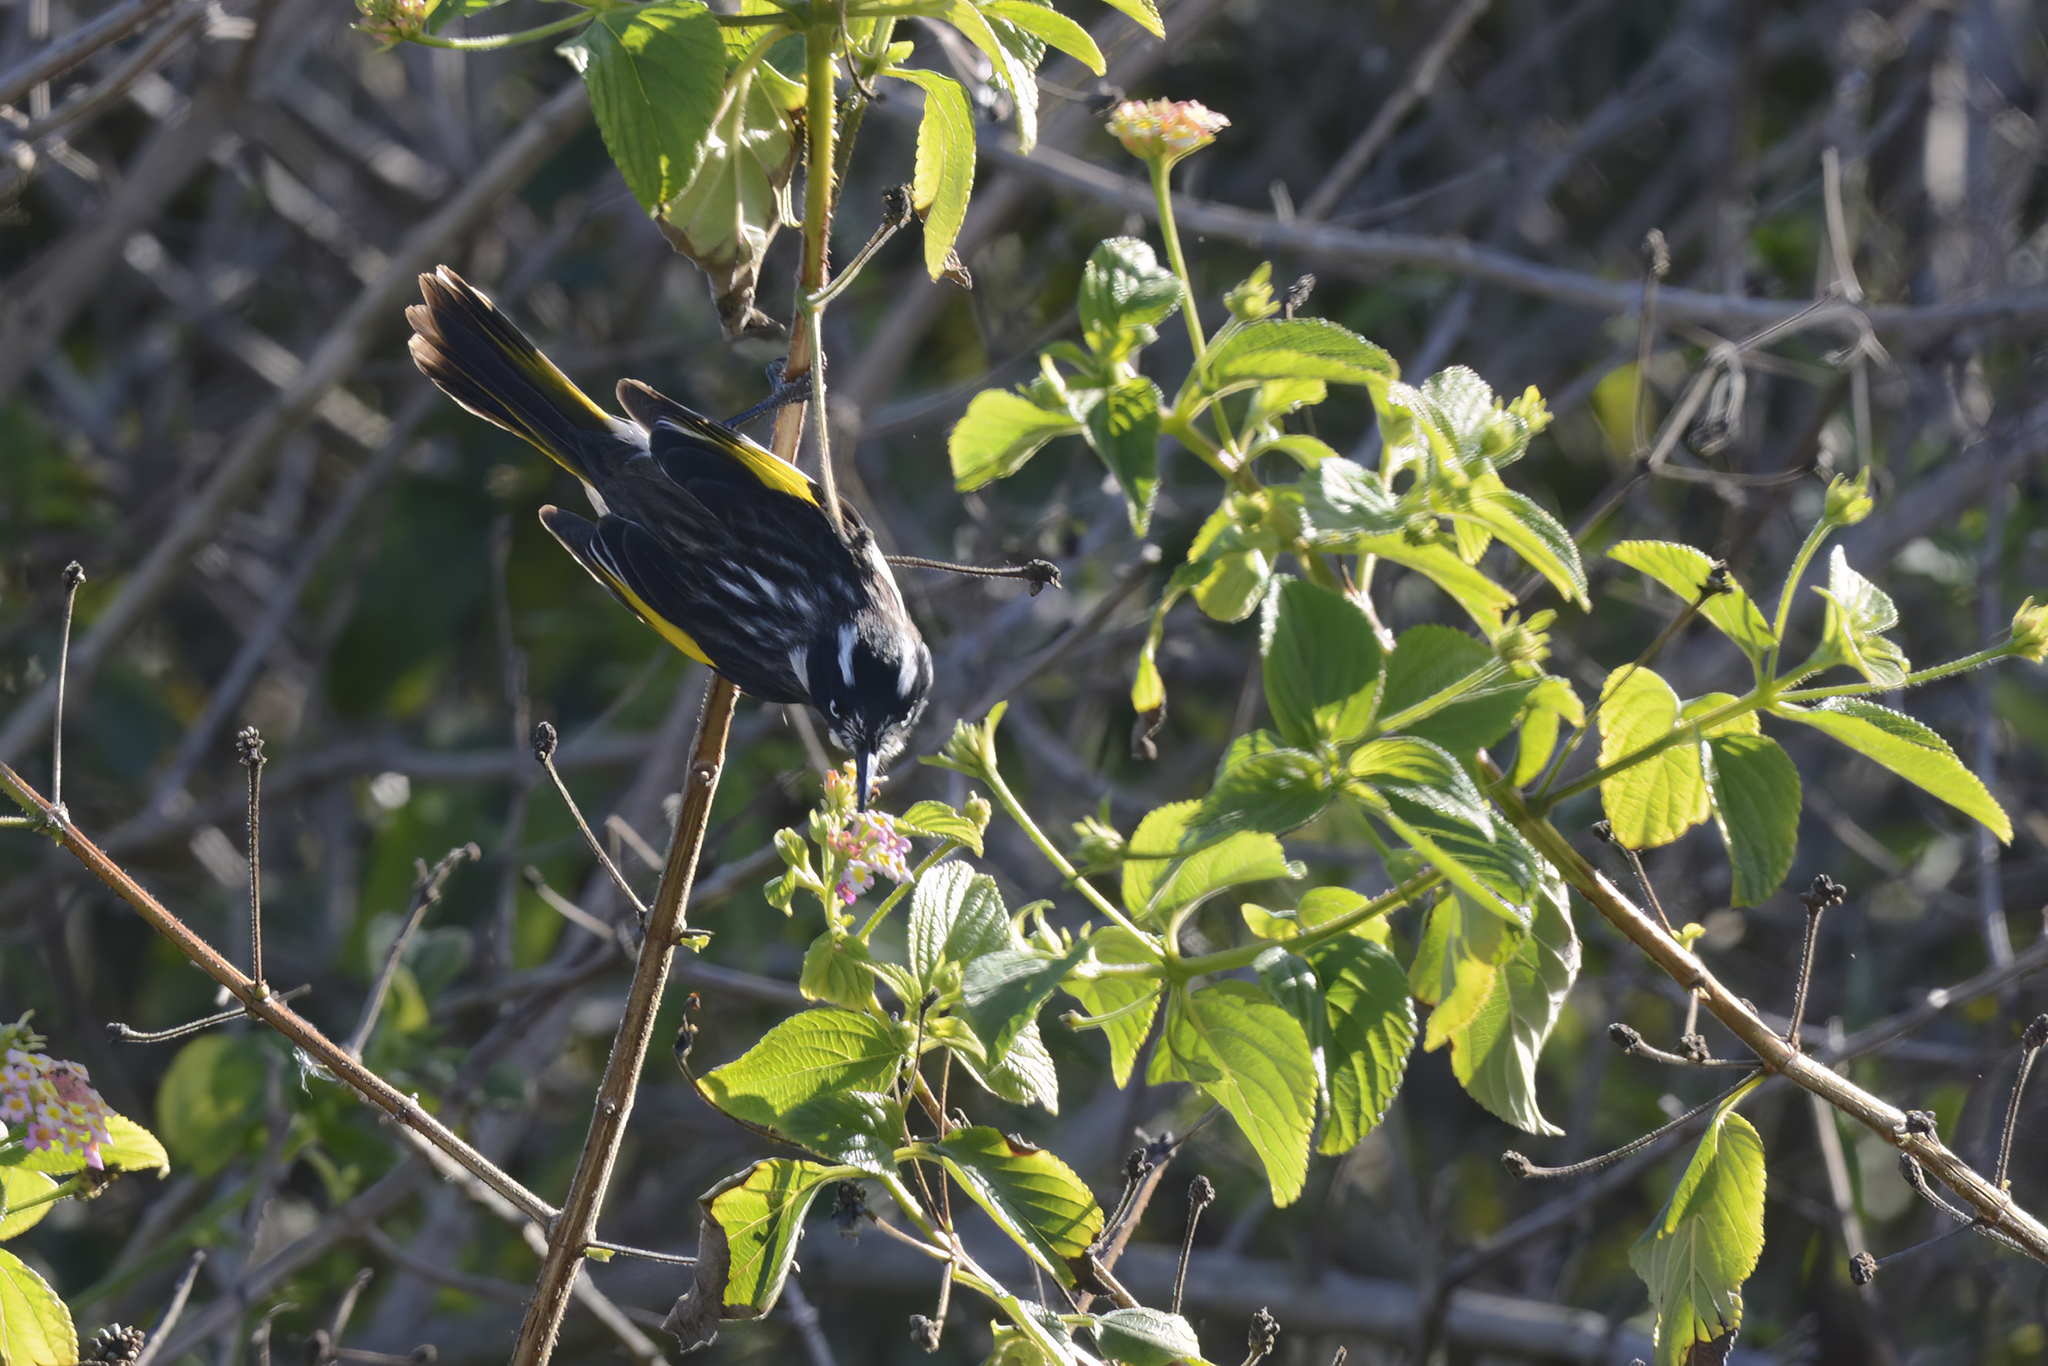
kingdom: Animalia
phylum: Chordata
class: Aves
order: Passeriformes
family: Meliphagidae
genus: Phylidonyris
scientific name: Phylidonyris novaehollandiae
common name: New holland honeyeater
